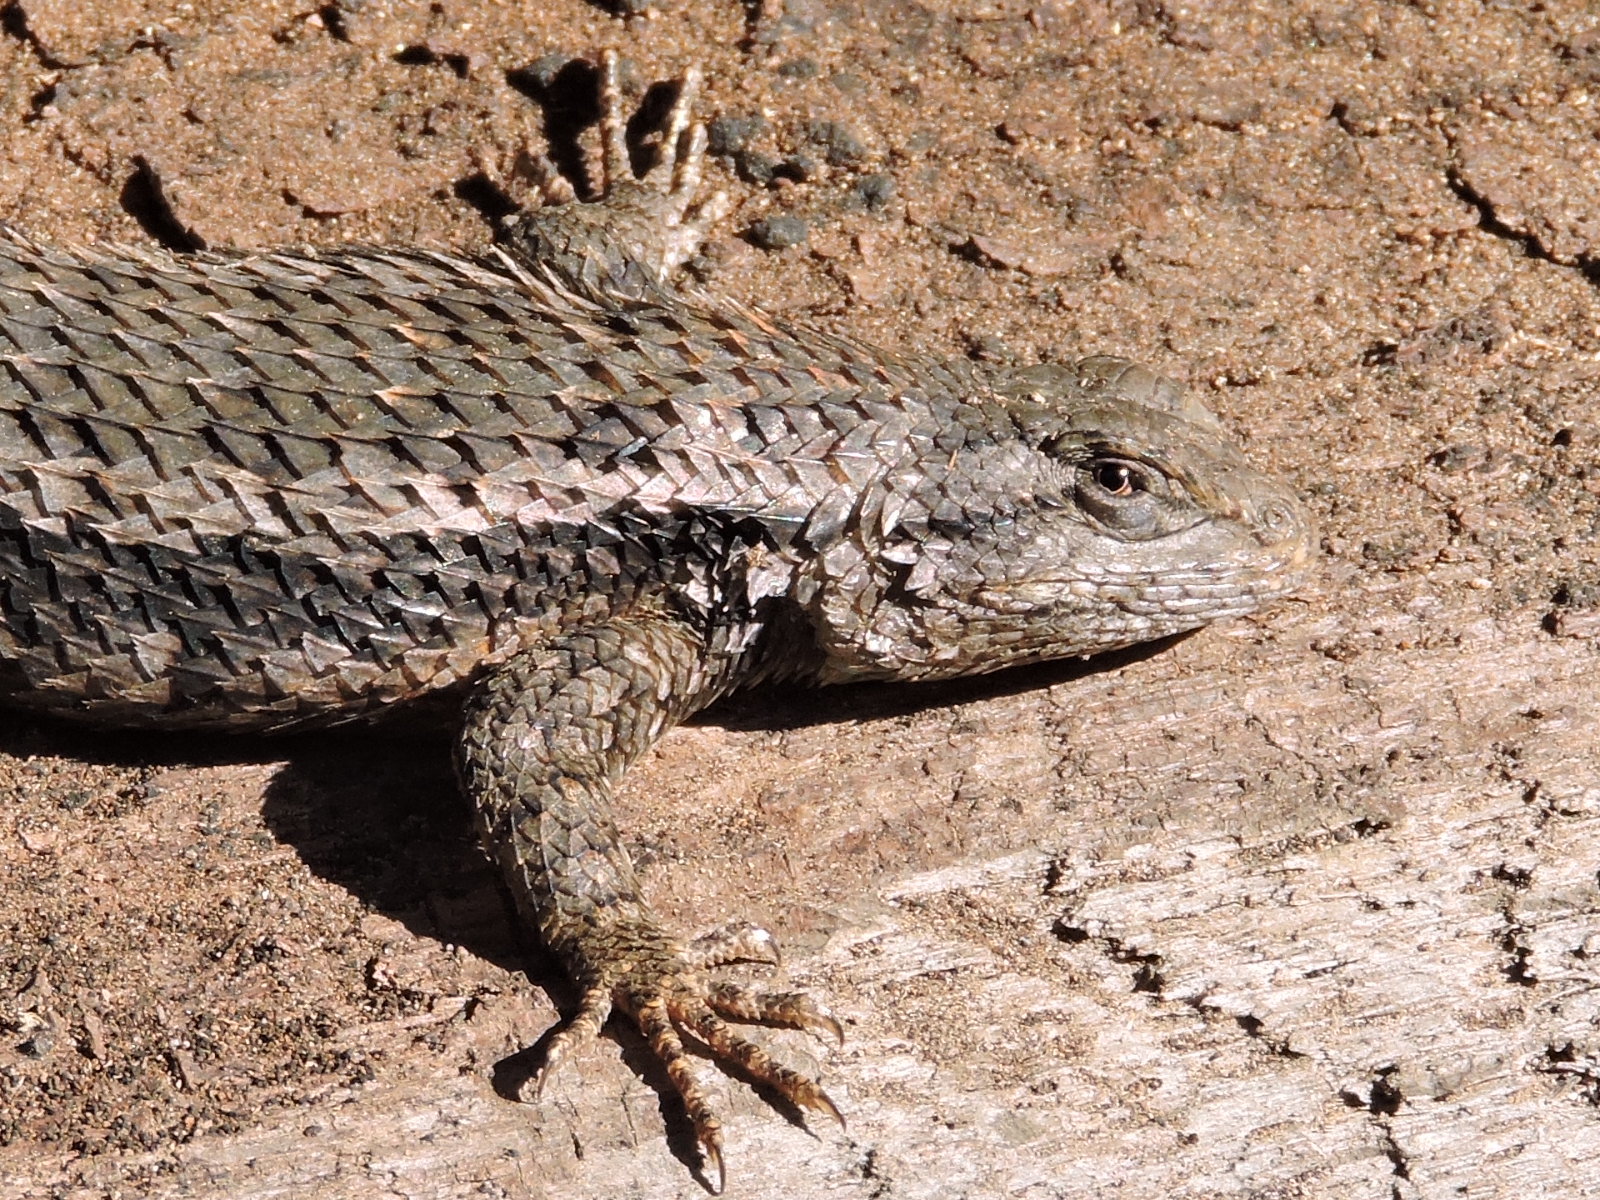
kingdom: Animalia
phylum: Chordata
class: Squamata
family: Phrynosomatidae
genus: Sceloporus
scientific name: Sceloporus olivaceus
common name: Texas spiny lizard
